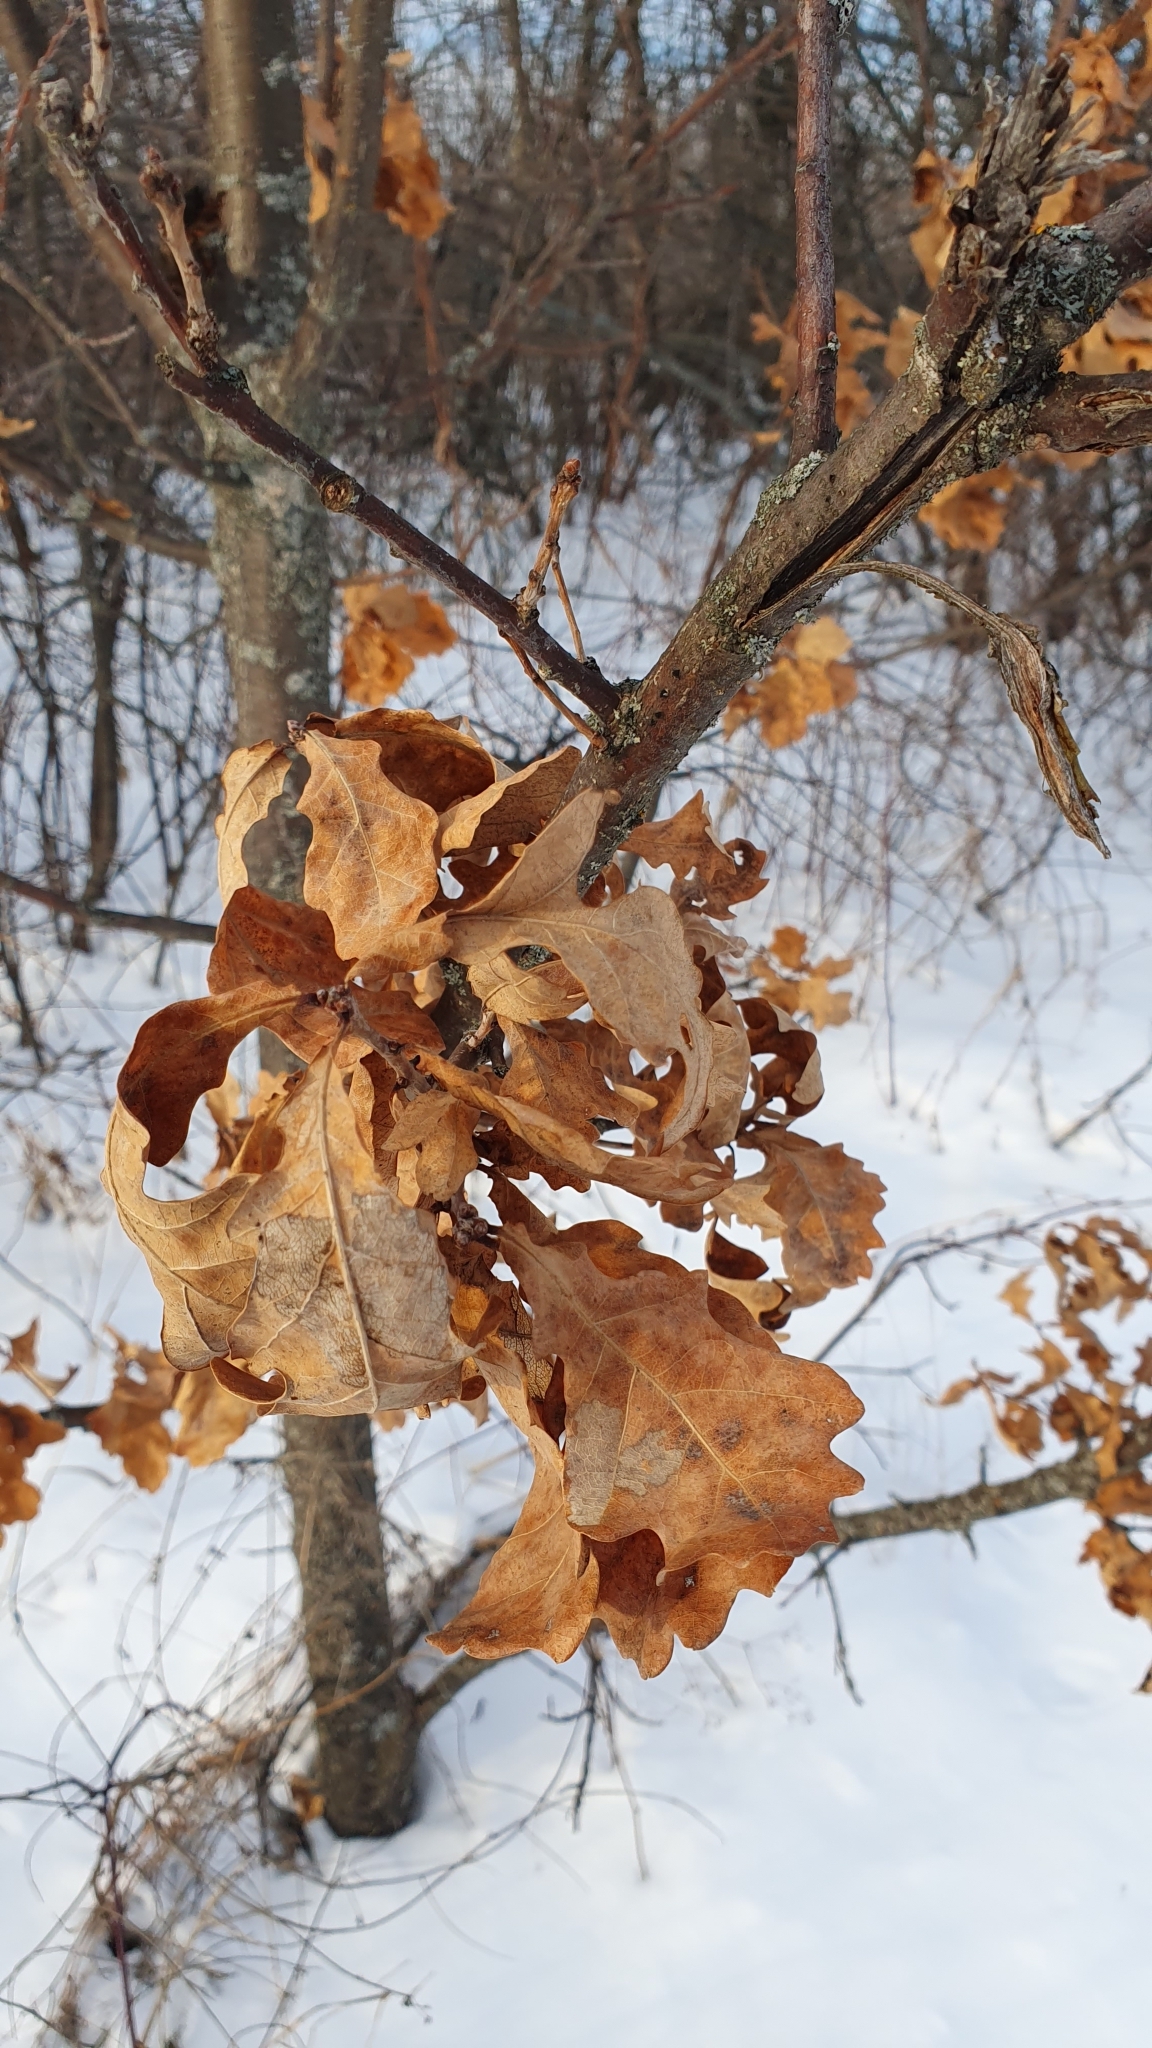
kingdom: Plantae
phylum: Tracheophyta
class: Magnoliopsida
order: Fagales
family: Fagaceae
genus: Quercus
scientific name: Quercus robur
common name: Pedunculate oak
